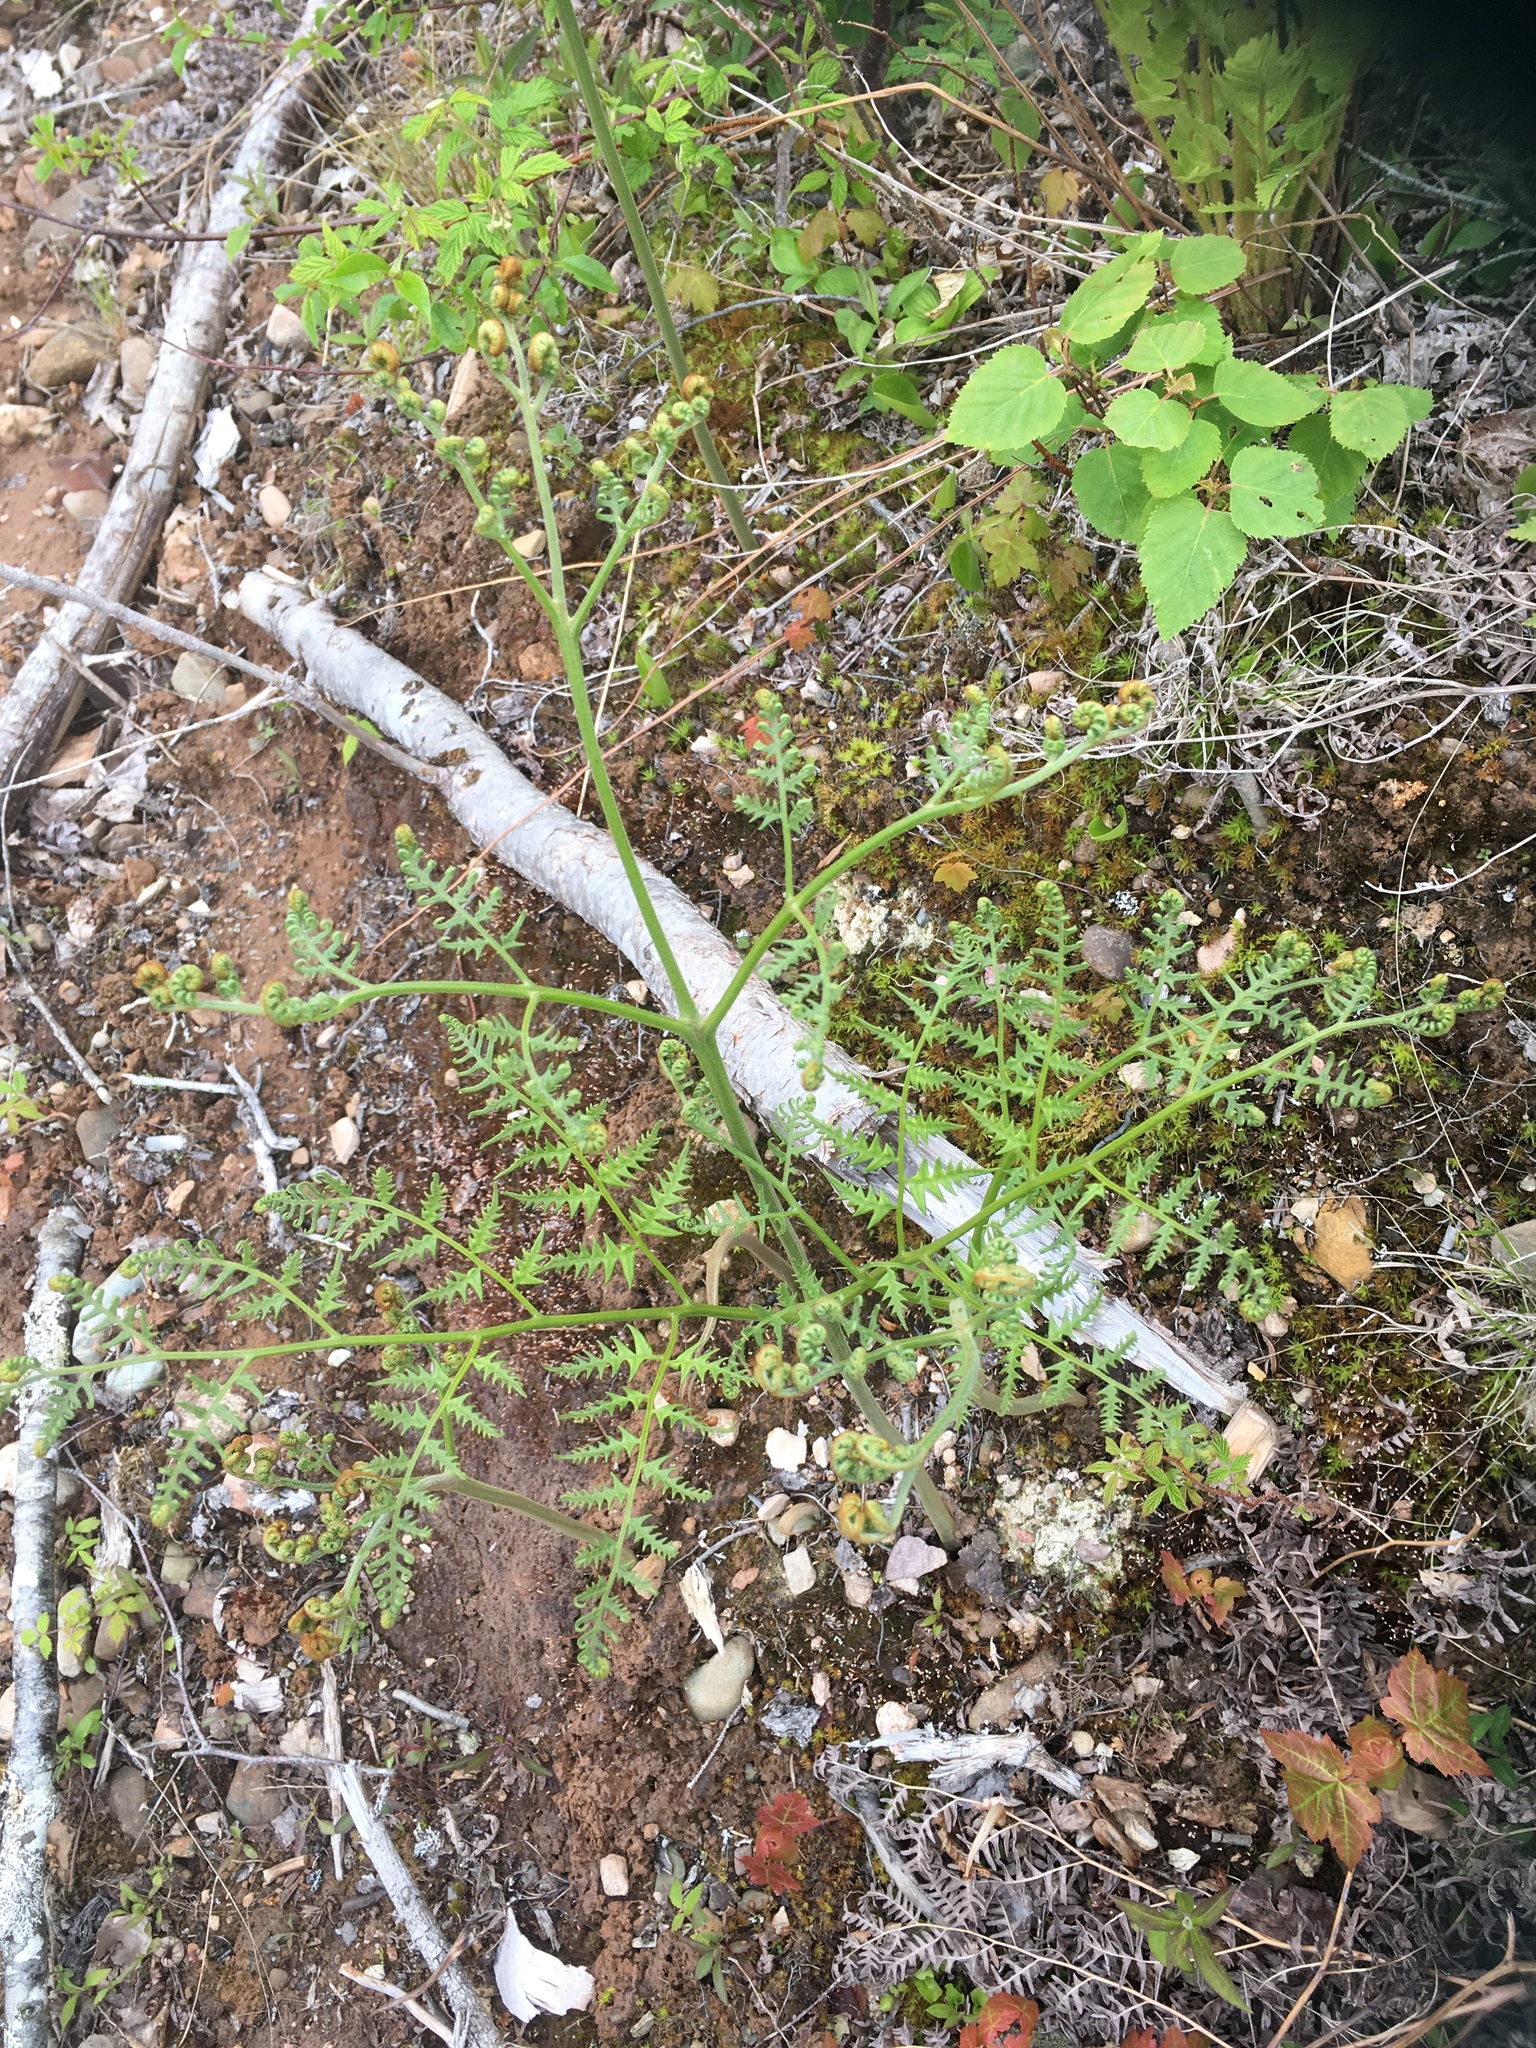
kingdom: Plantae
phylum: Tracheophyta
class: Polypodiopsida
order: Polypodiales
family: Dennstaedtiaceae
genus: Pteridium
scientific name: Pteridium aquilinum
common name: Bracken
